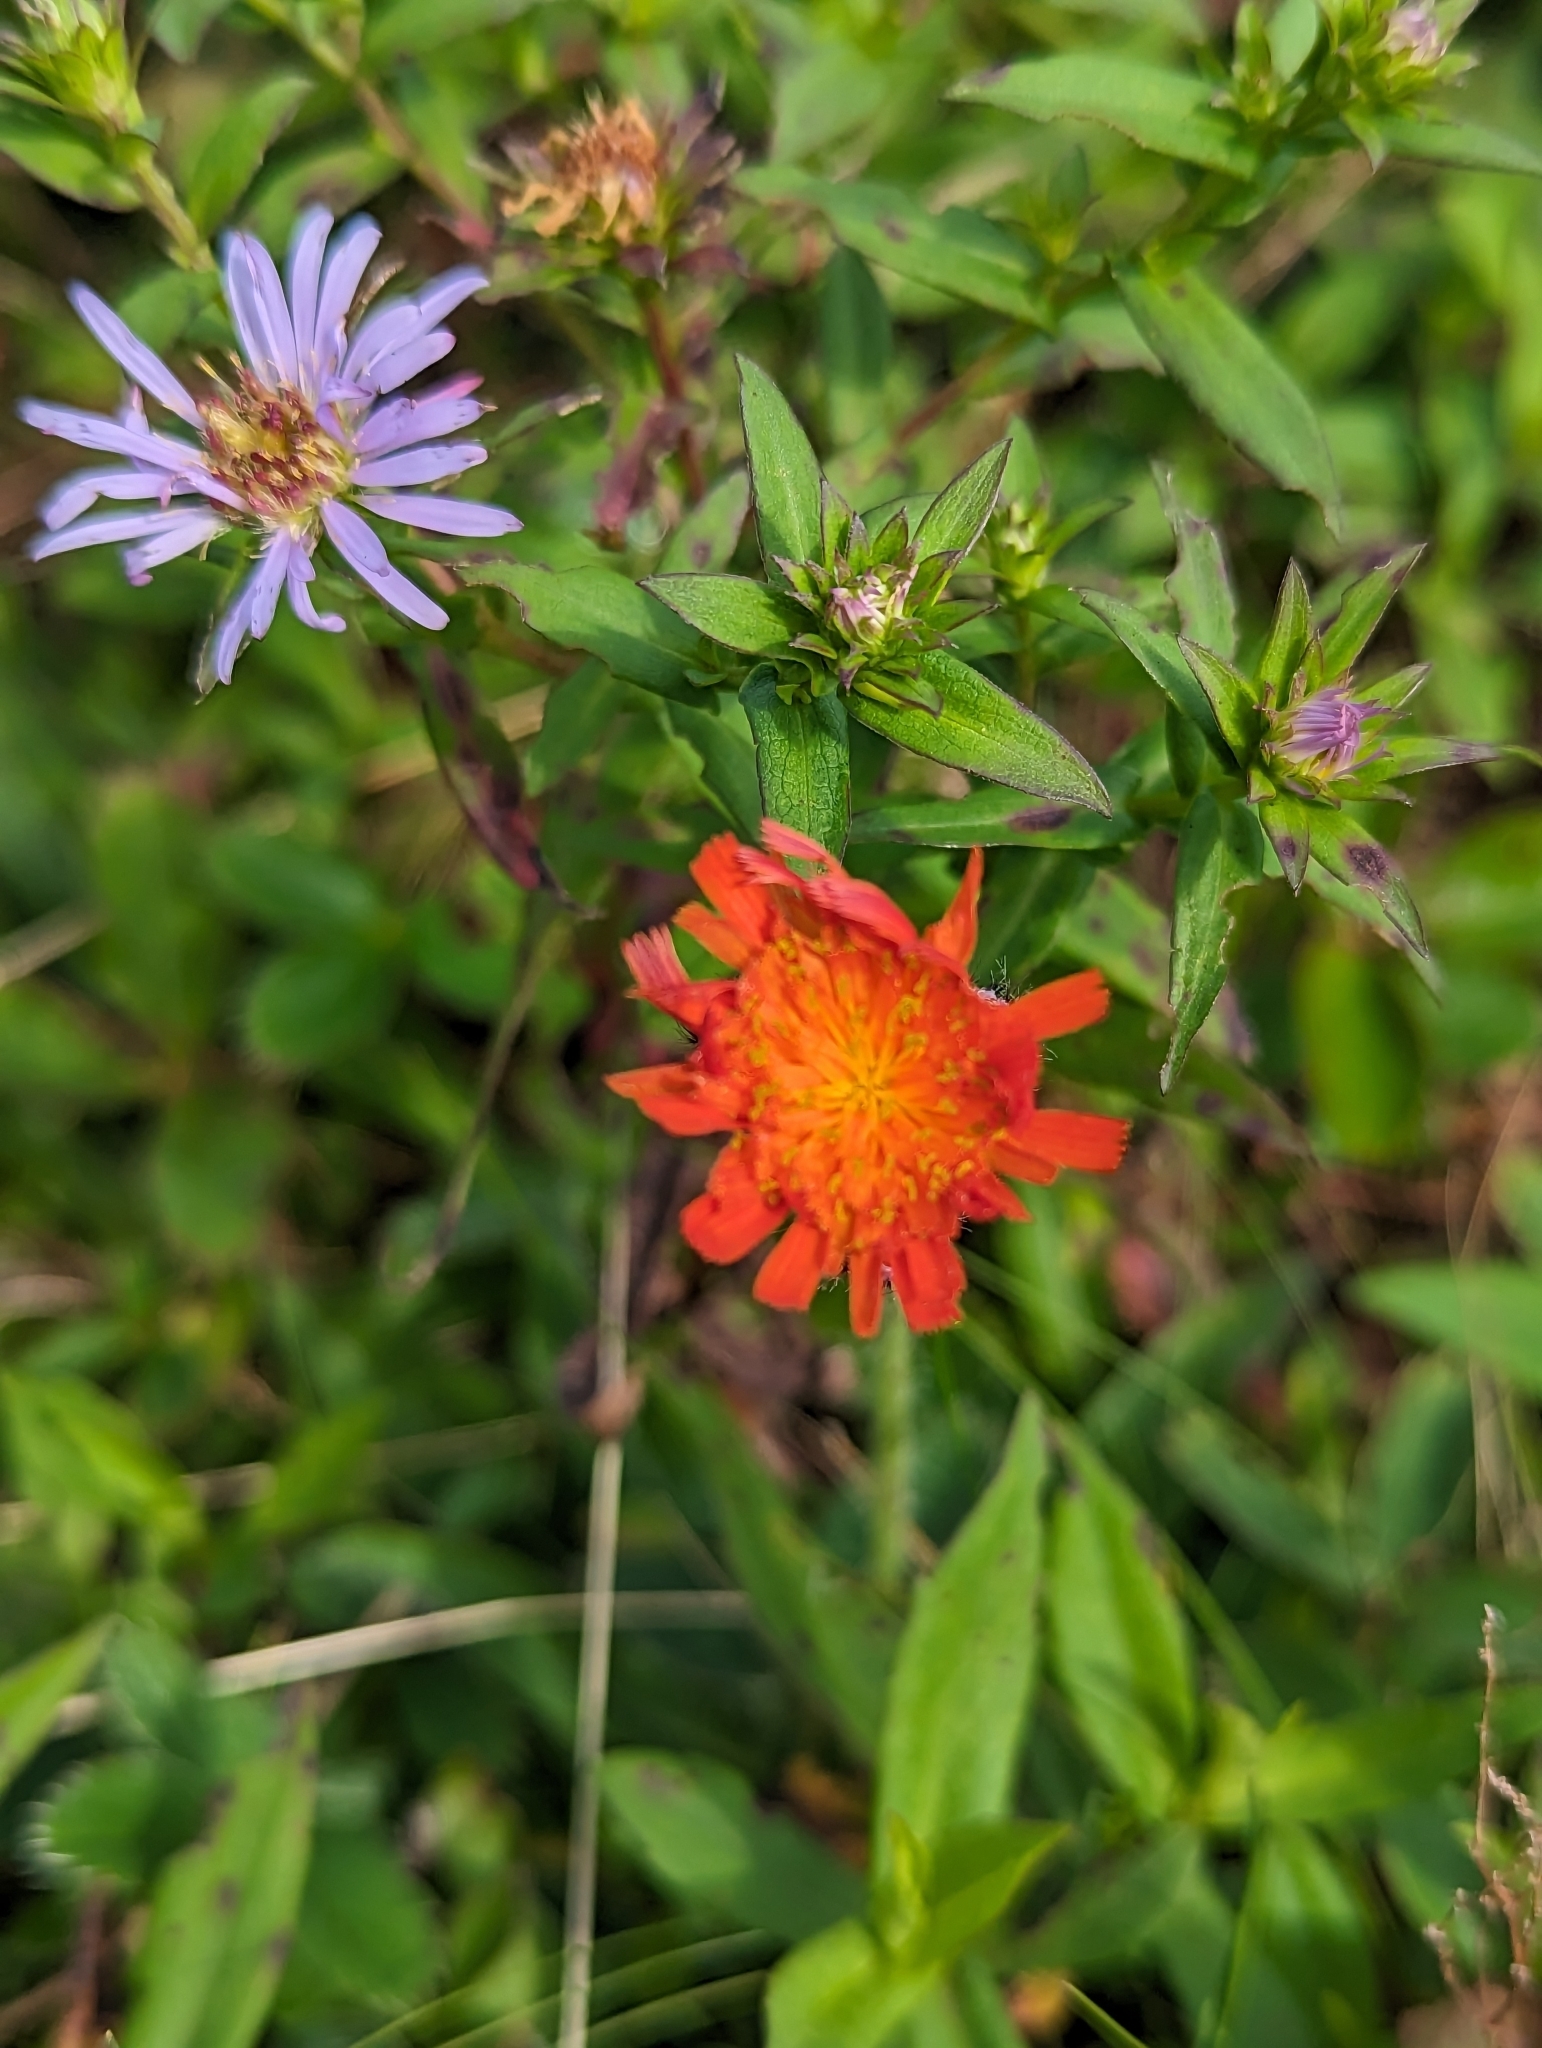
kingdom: Plantae
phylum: Tracheophyta
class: Magnoliopsida
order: Asterales
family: Asteraceae
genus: Pilosella
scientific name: Pilosella aurantiaca
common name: Fox-and-cubs
